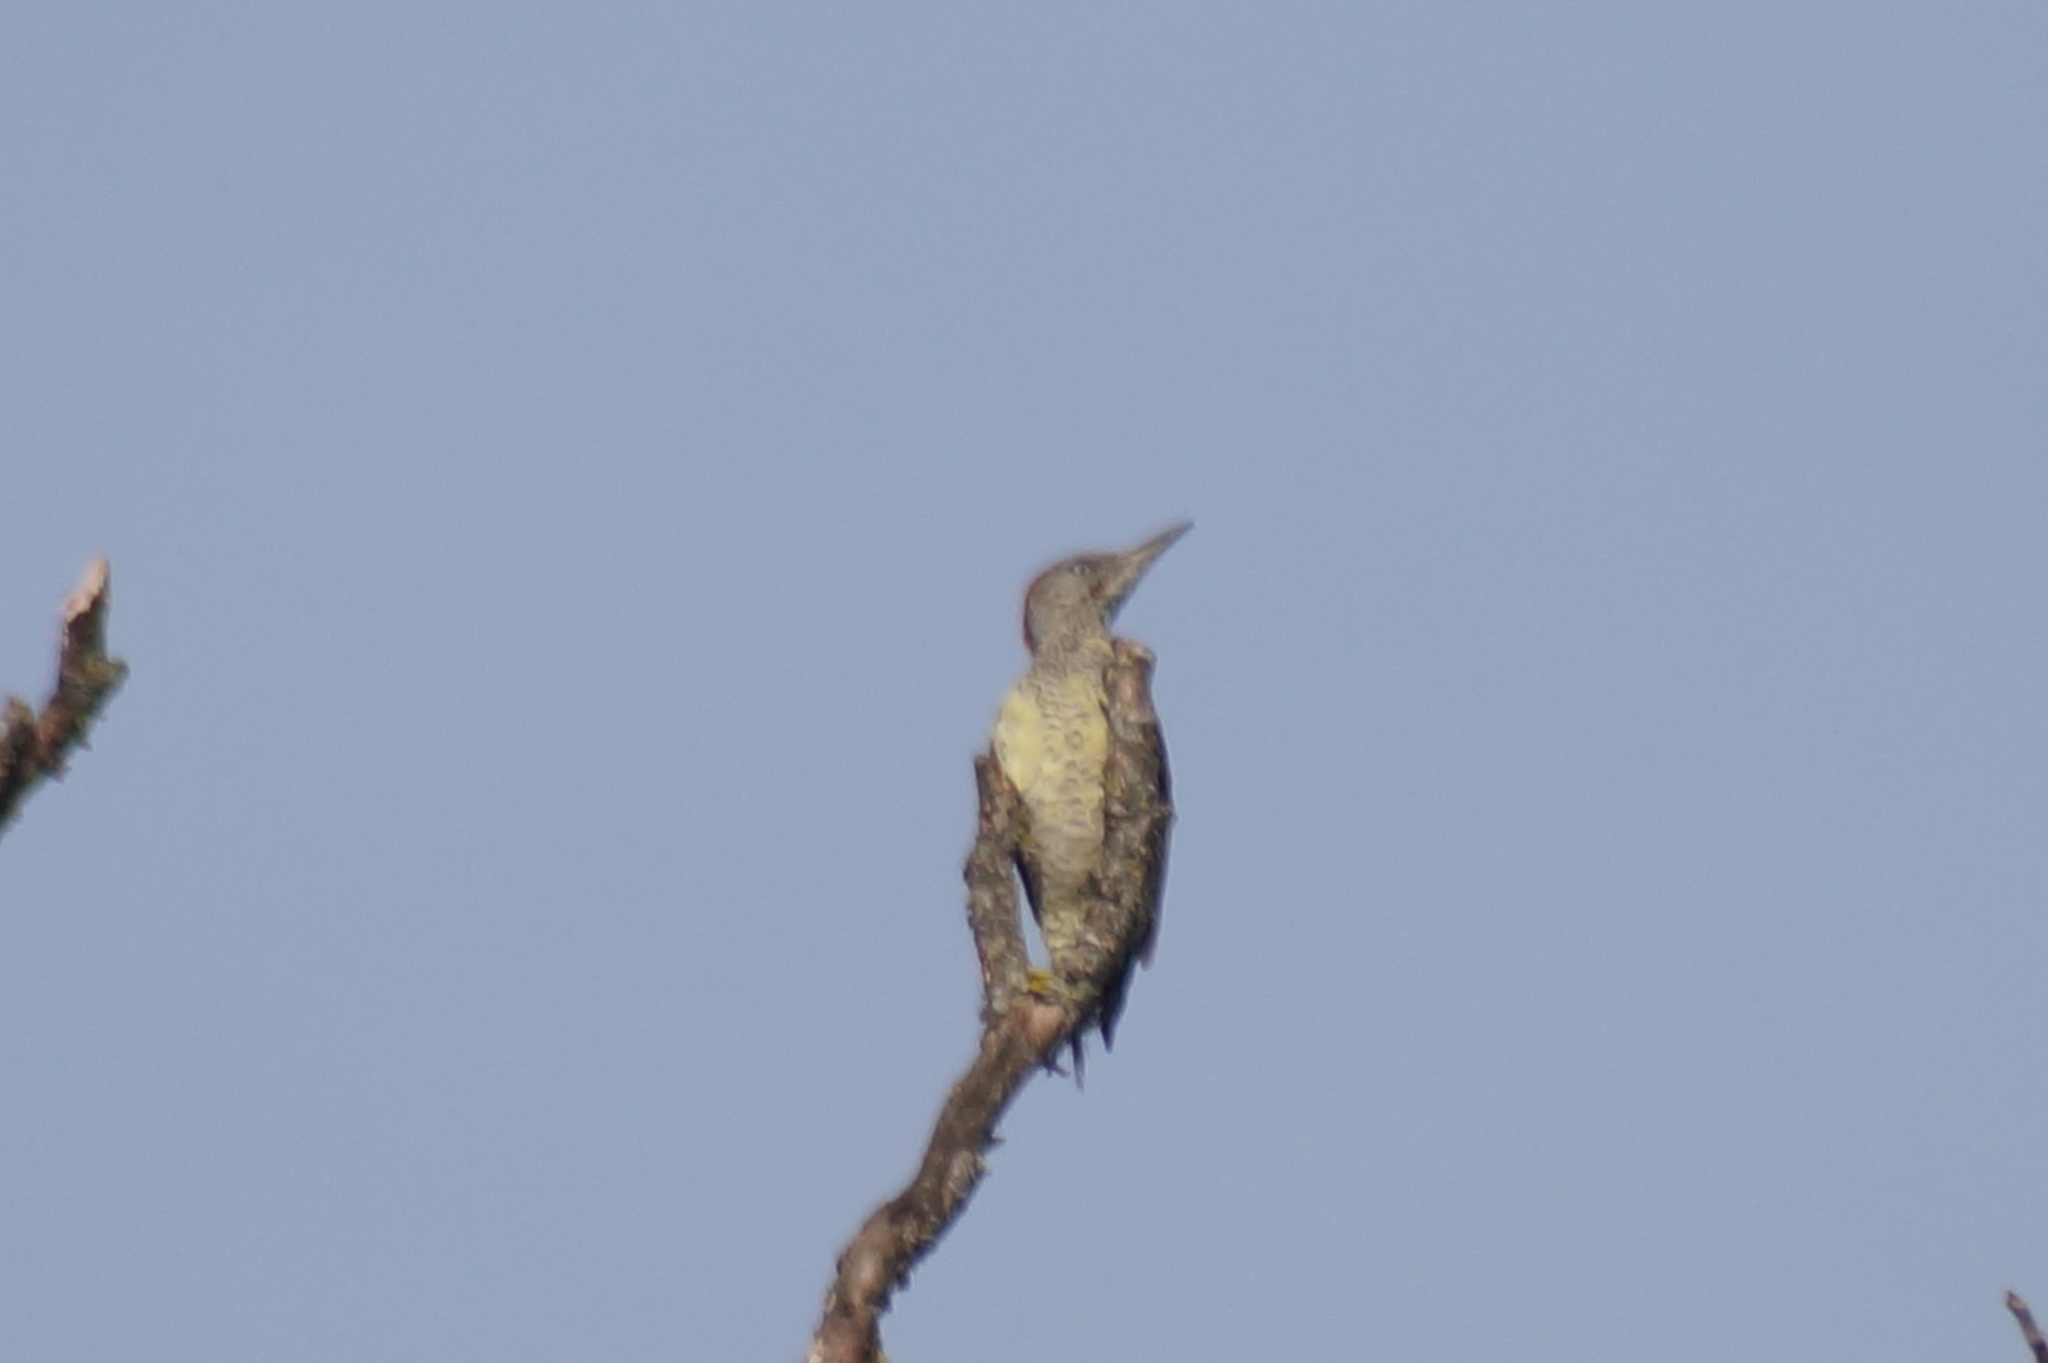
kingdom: Animalia
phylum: Chordata
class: Aves
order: Piciformes
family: Picidae
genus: Picus
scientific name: Picus viridis
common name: European green woodpecker
